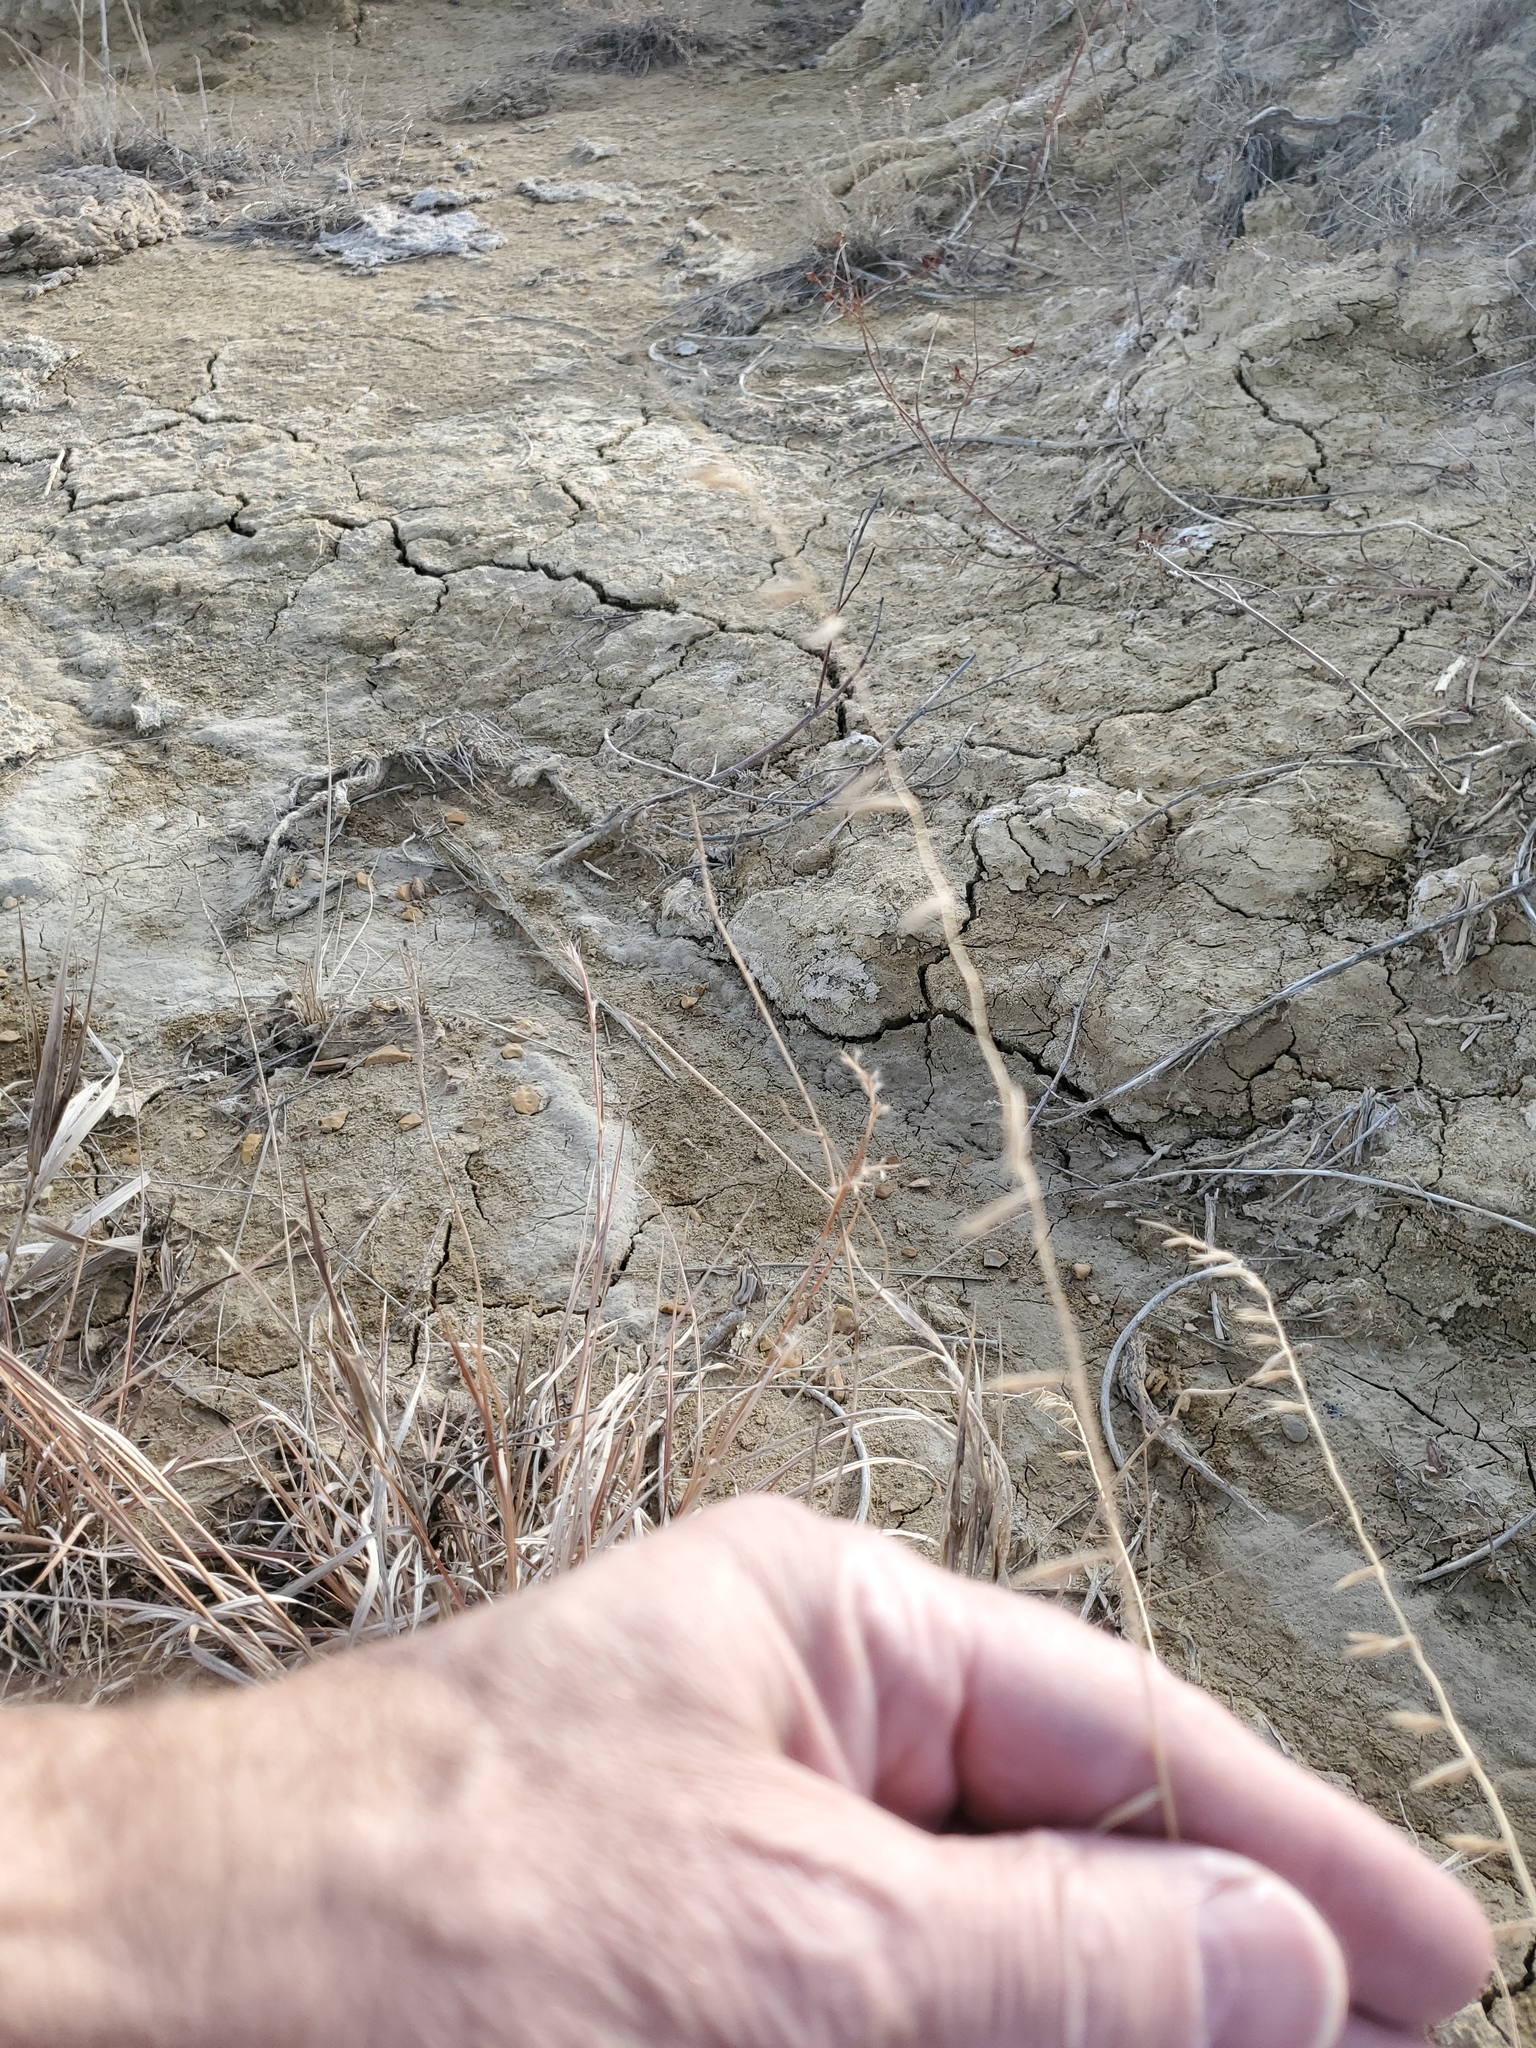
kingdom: Plantae
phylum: Tracheophyta
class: Liliopsida
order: Poales
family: Poaceae
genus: Bouteloua
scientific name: Bouteloua curtipendula
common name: Side-oats grama
